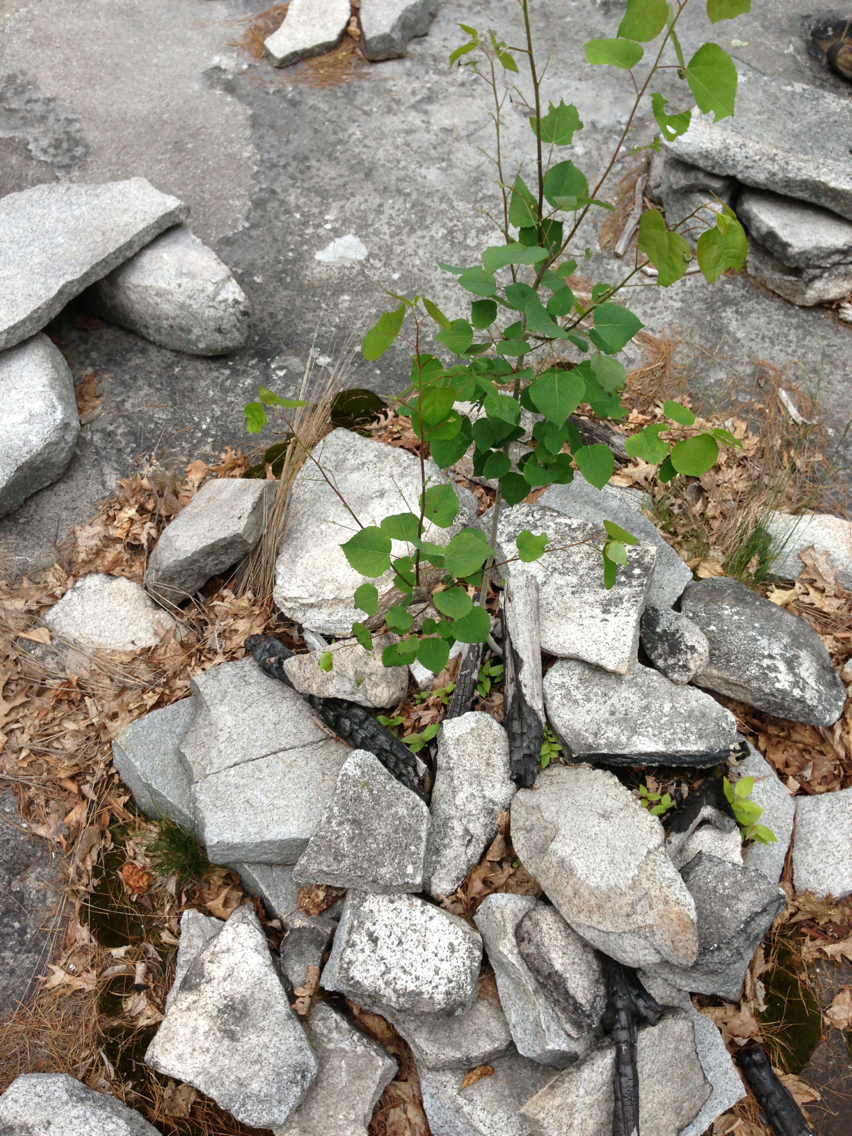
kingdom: Plantae
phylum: Tracheophyta
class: Magnoliopsida
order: Malpighiales
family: Salicaceae
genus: Populus
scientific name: Populus tremuloides
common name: Quaking aspen
